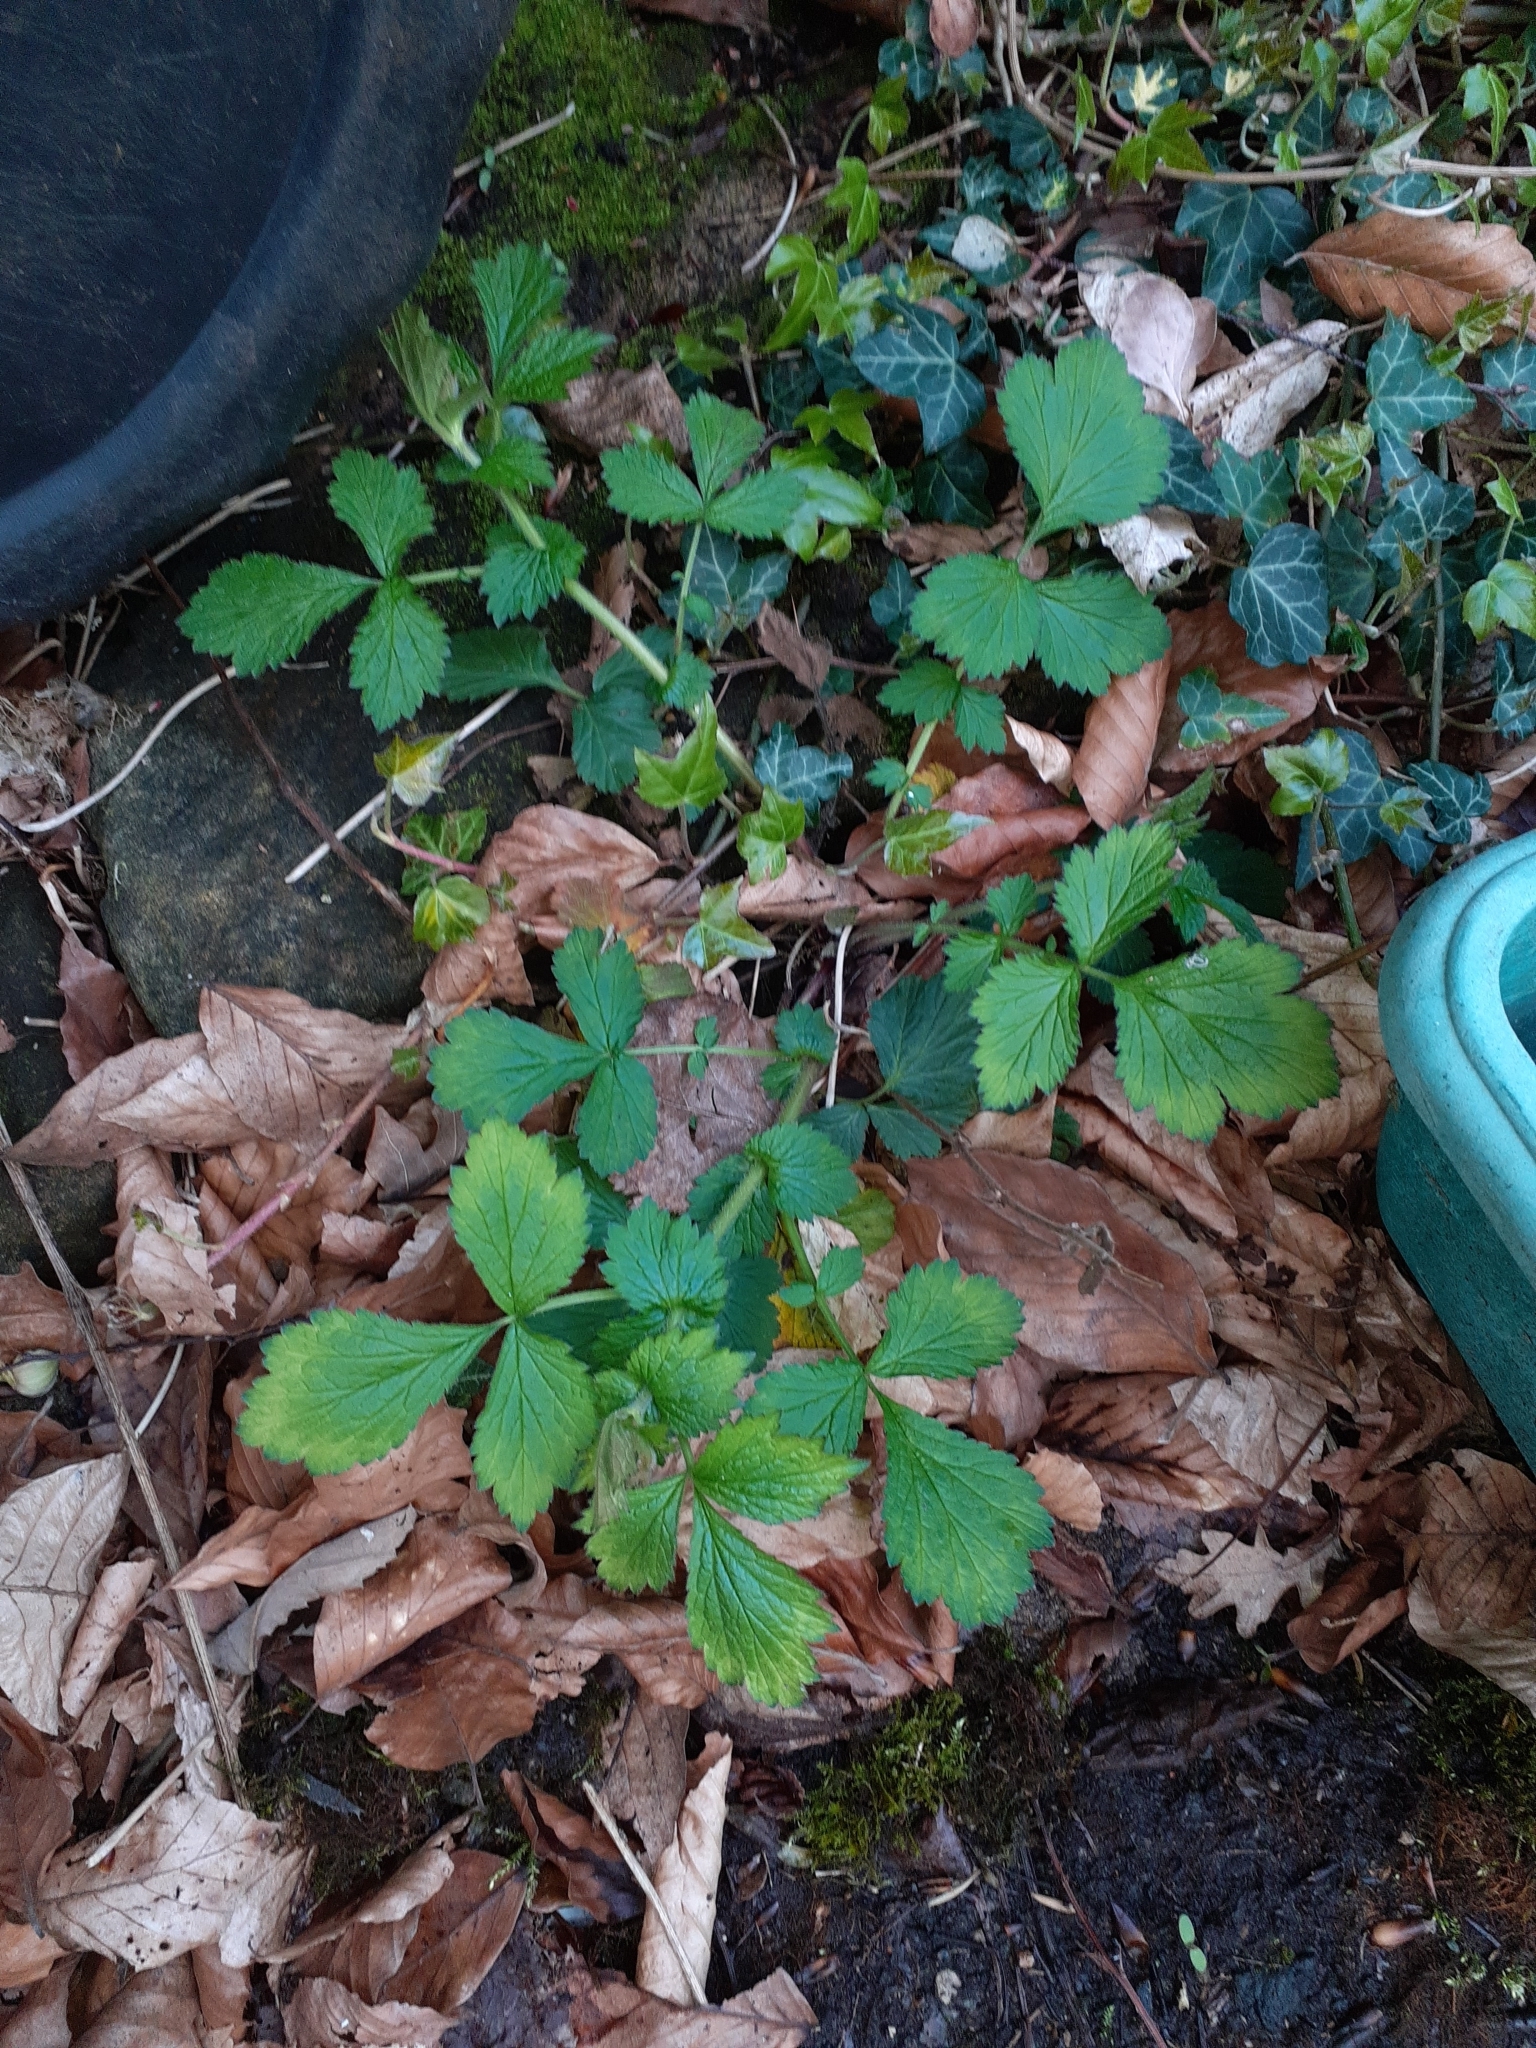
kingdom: Plantae
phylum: Tracheophyta
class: Magnoliopsida
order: Rosales
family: Rosaceae
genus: Geum
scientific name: Geum urbanum
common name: Wood avens
